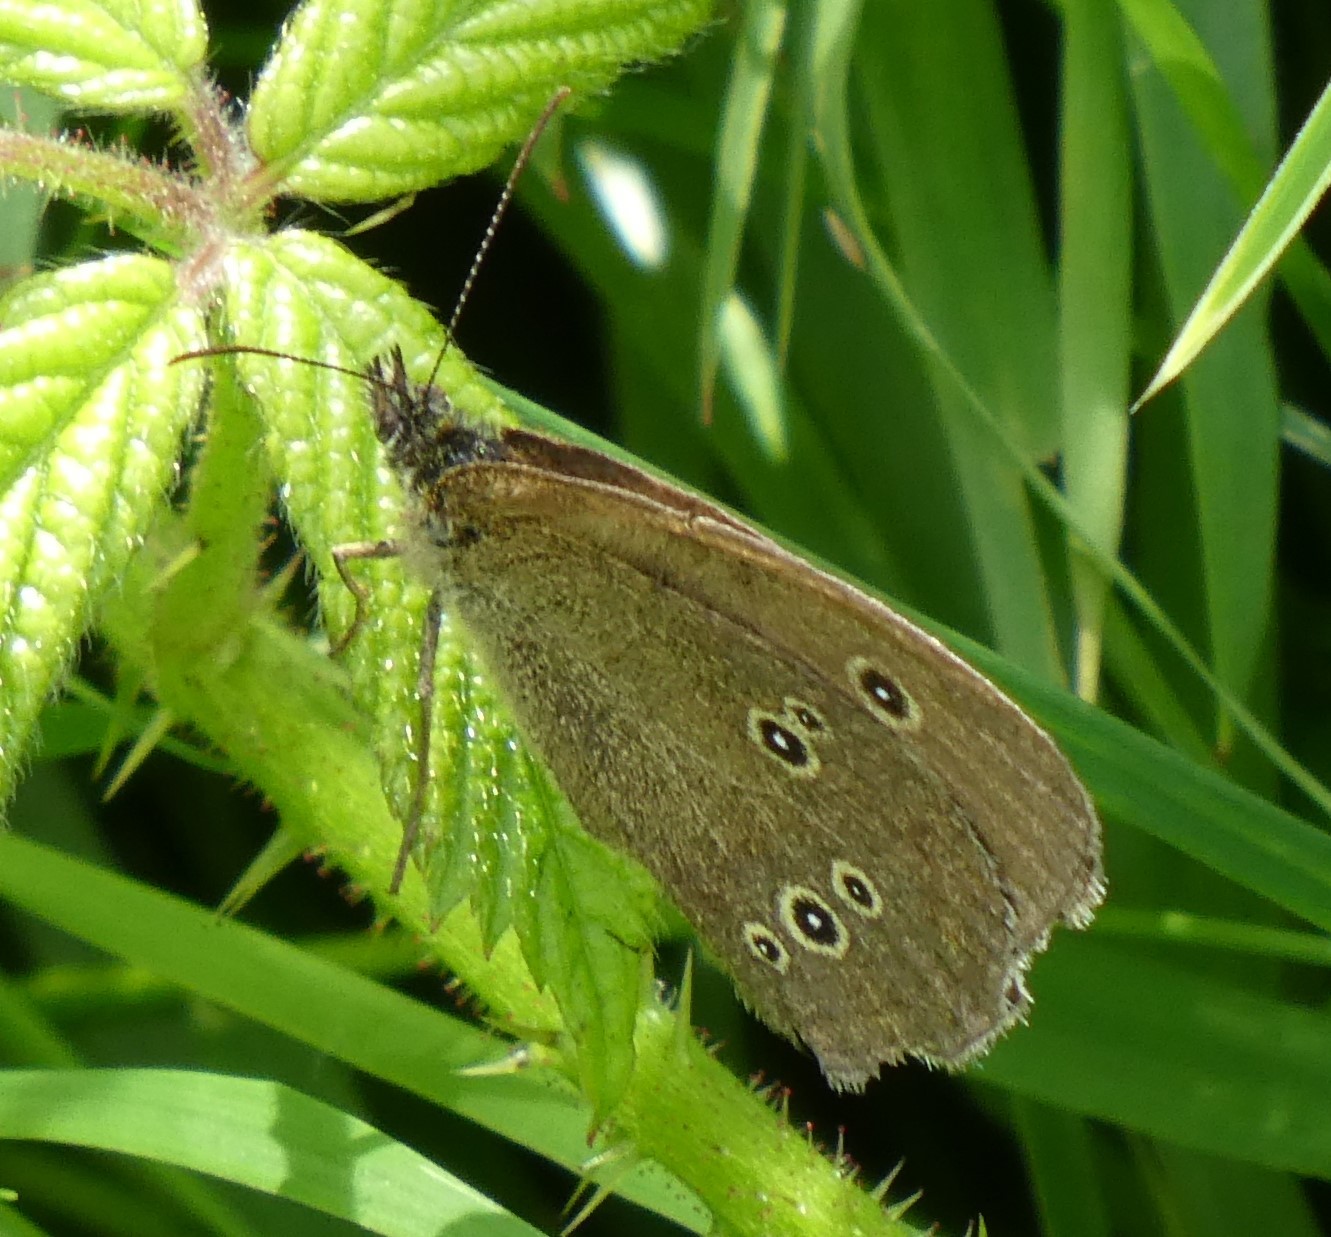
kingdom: Animalia
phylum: Arthropoda
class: Insecta
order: Lepidoptera
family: Nymphalidae
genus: Aphantopus
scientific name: Aphantopus hyperantus
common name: Ringlet
